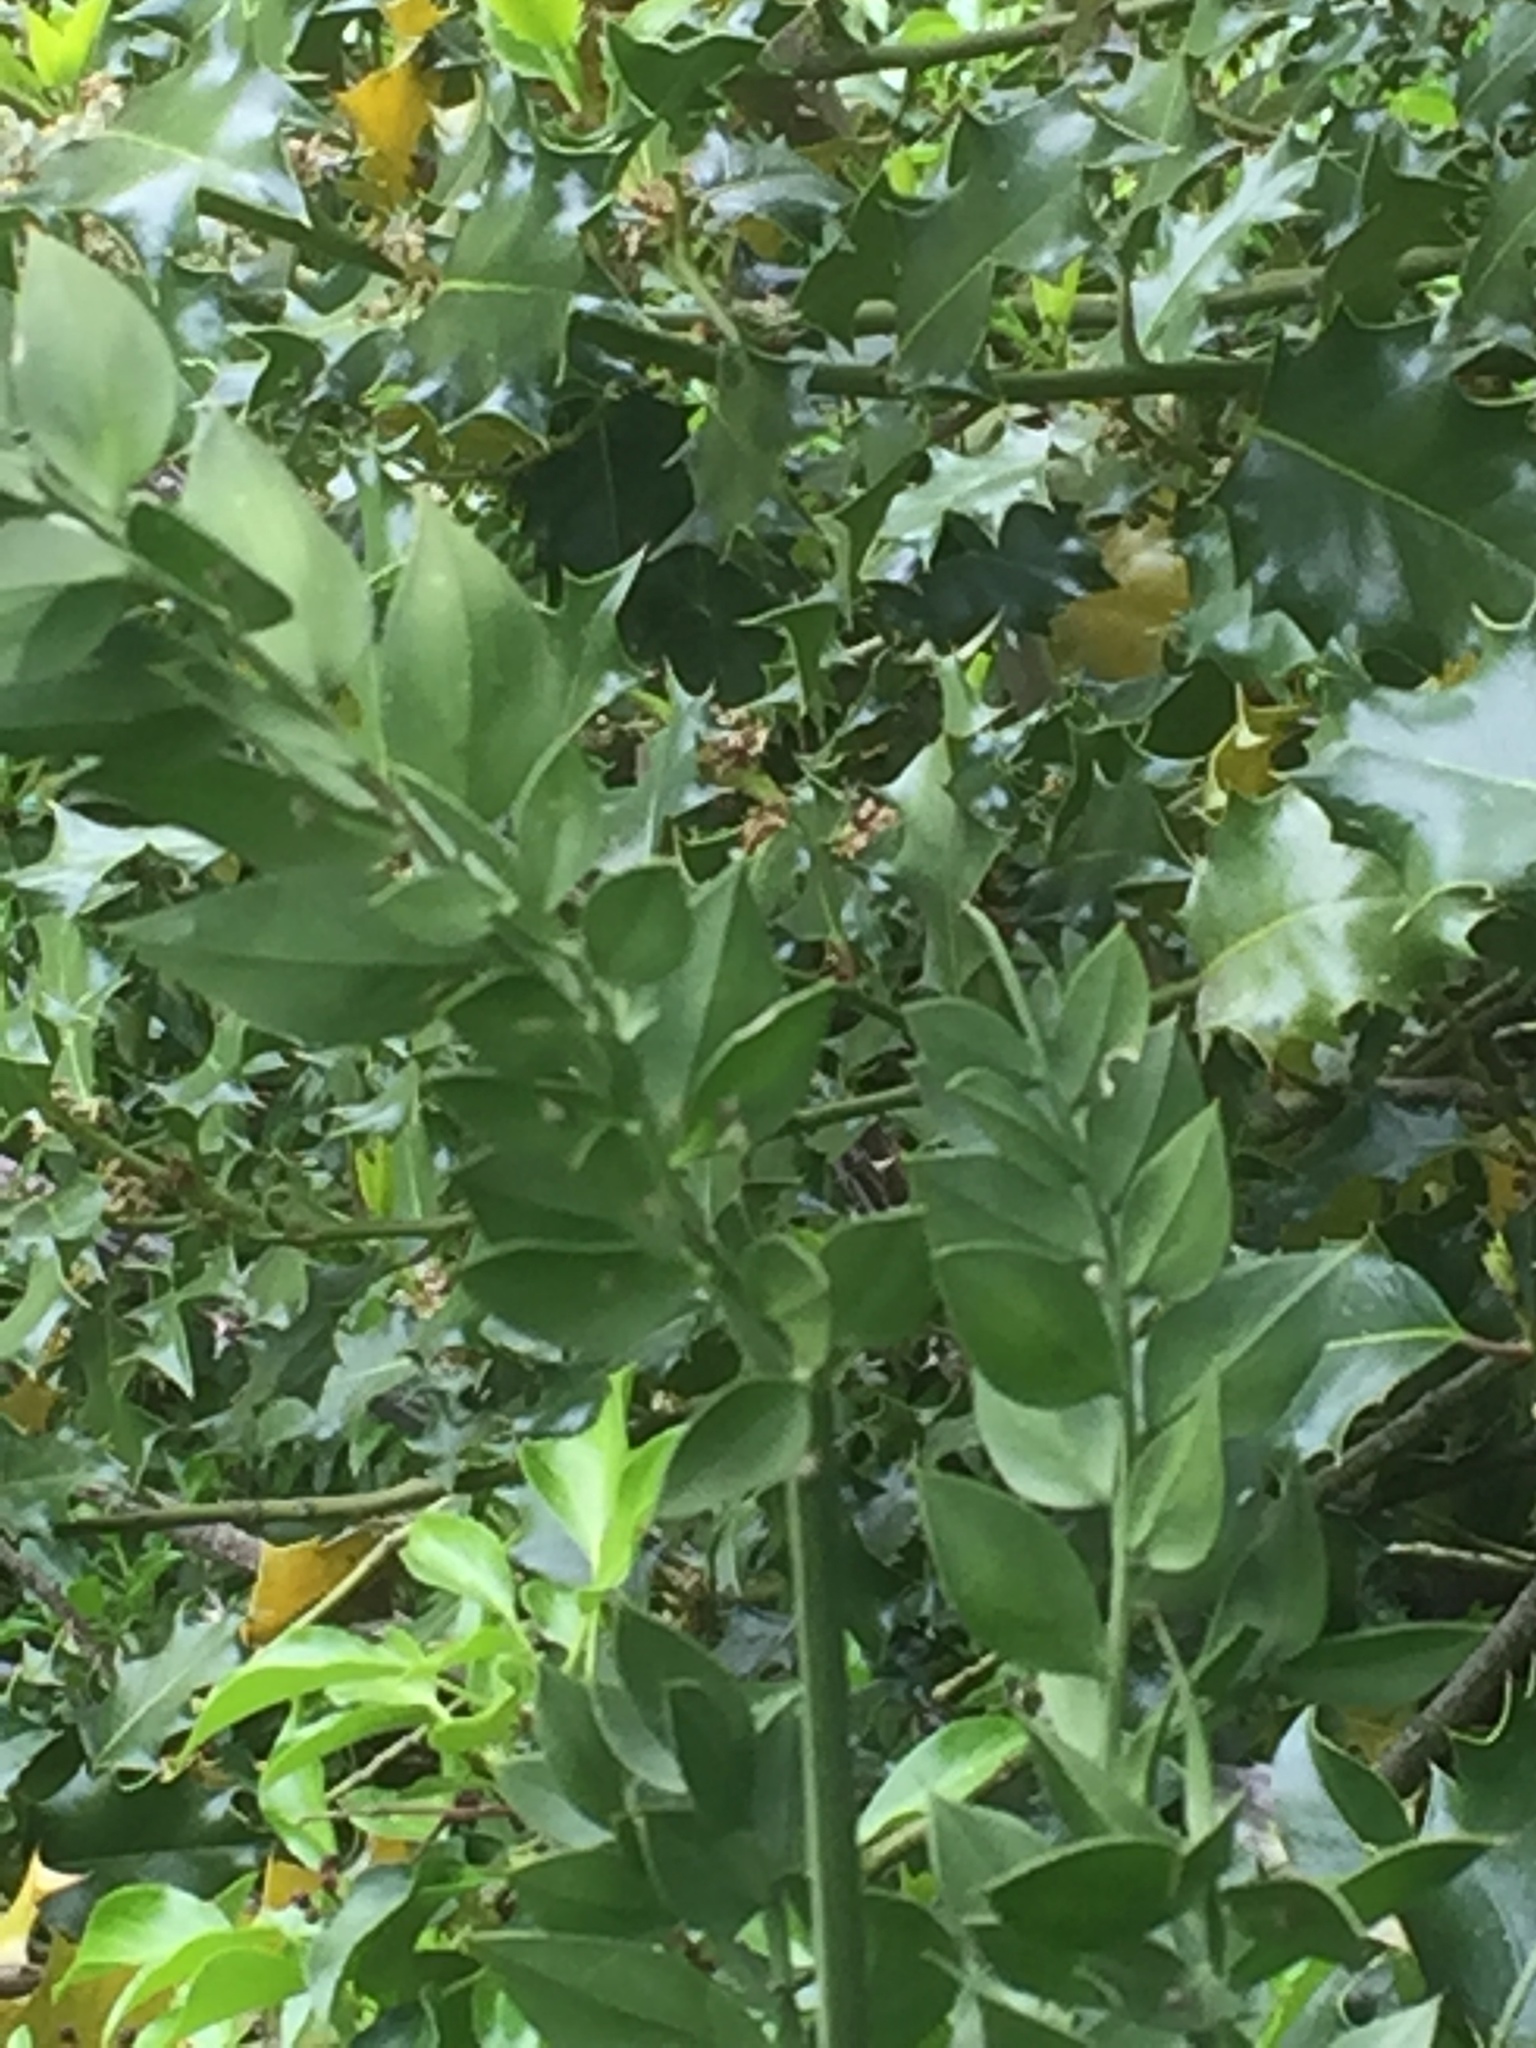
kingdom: Plantae
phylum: Tracheophyta
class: Liliopsida
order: Asparagales
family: Asparagaceae
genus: Ruscus
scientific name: Ruscus aculeatus
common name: Butcher's-broom
